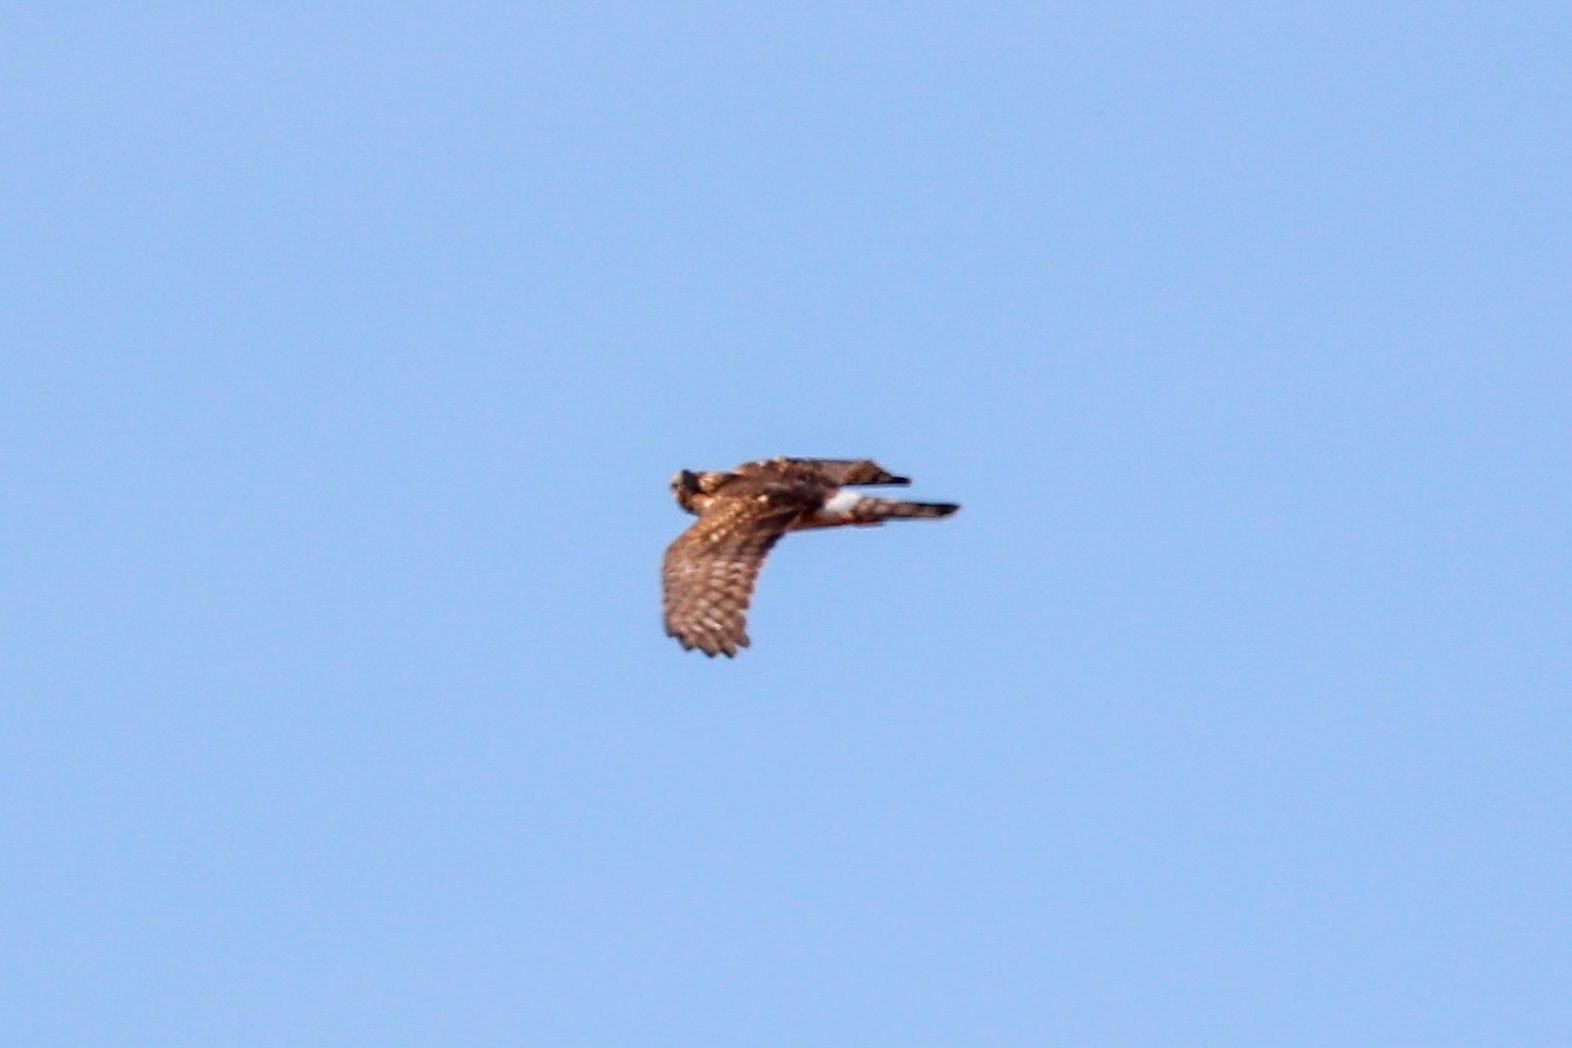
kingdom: Animalia
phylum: Chordata
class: Aves
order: Accipitriformes
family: Accipitridae
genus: Circus
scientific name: Circus cyaneus
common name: Hen harrier
